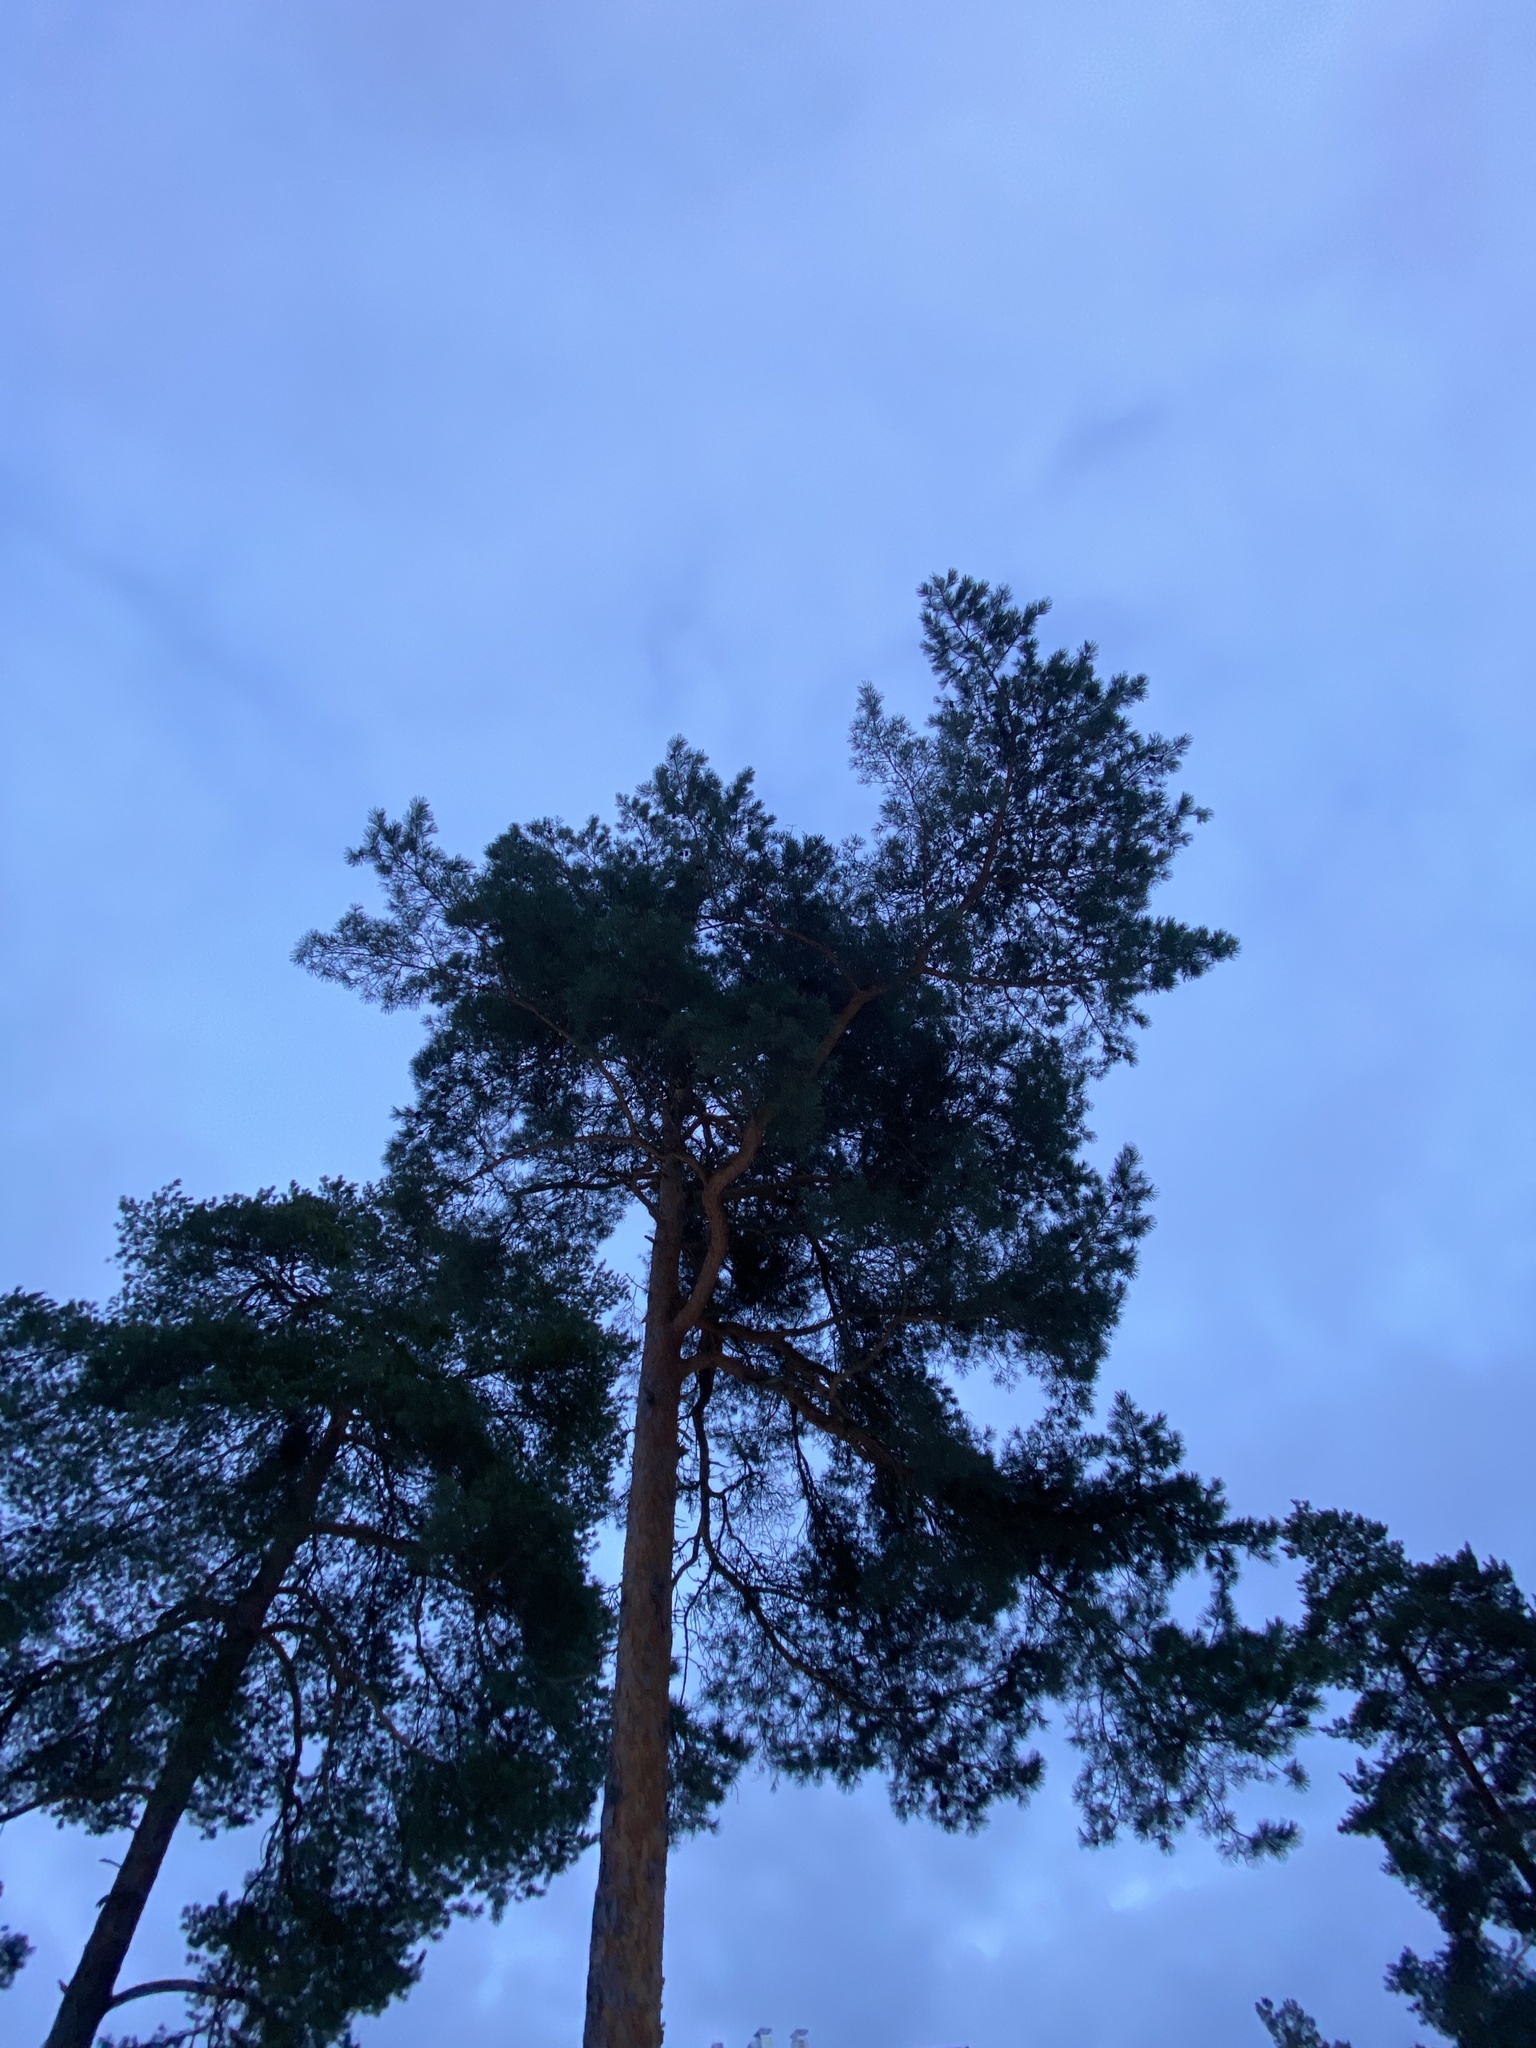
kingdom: Plantae
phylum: Tracheophyta
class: Pinopsida
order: Pinales
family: Pinaceae
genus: Pinus
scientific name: Pinus sylvestris
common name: Scots pine
